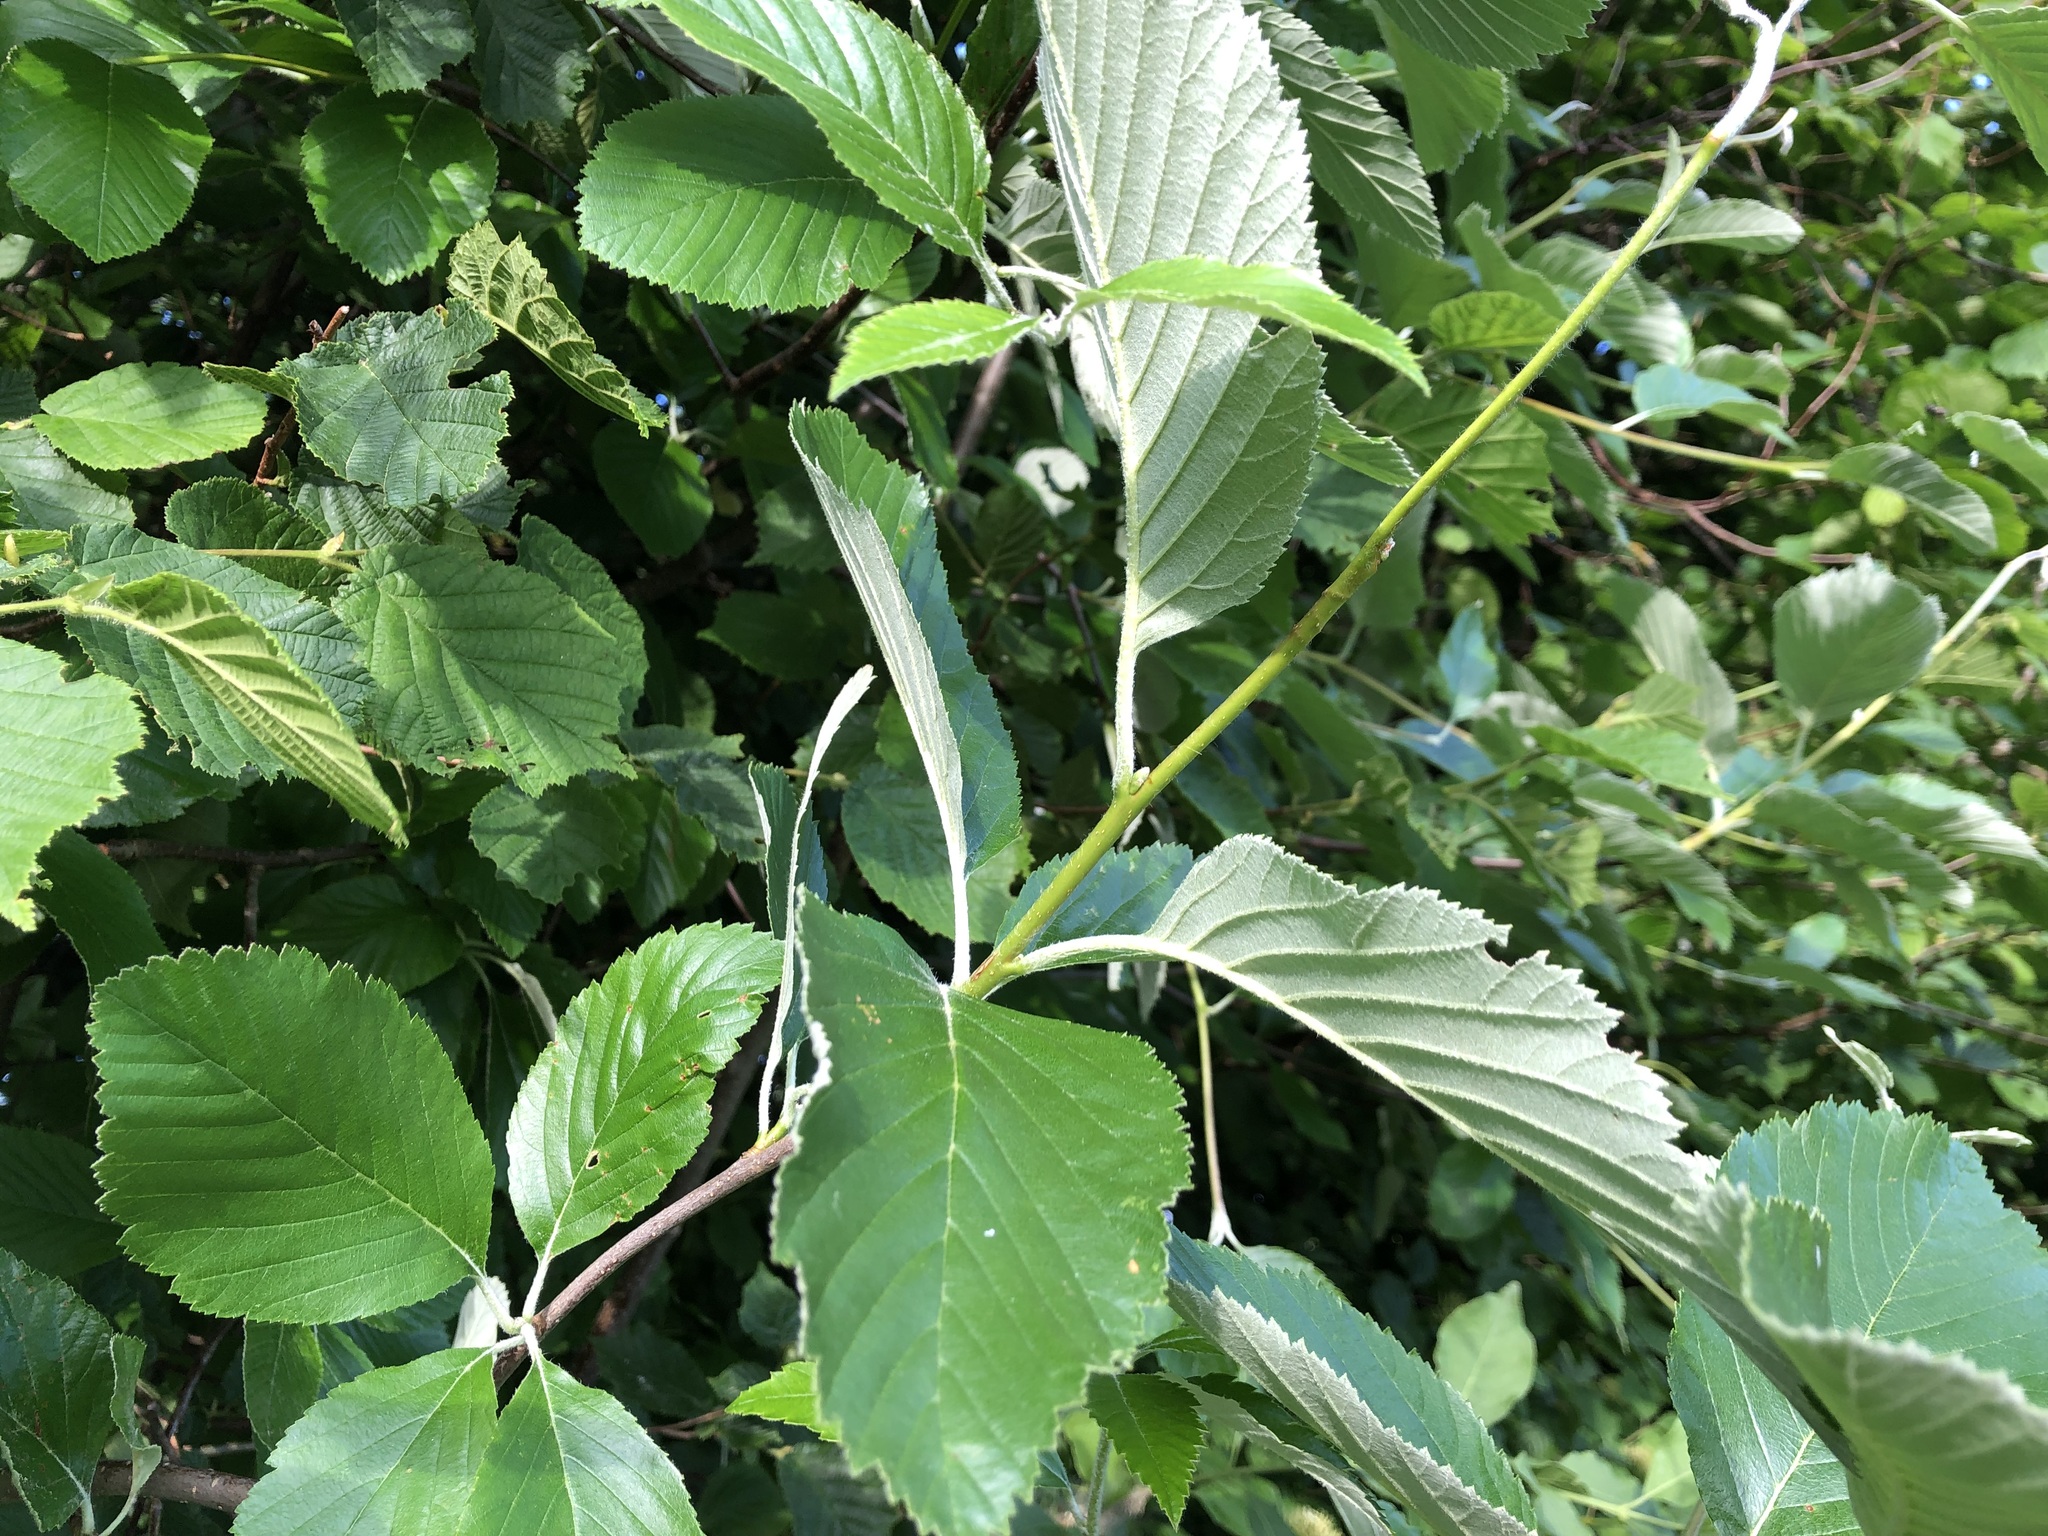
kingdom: Plantae
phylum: Tracheophyta
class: Magnoliopsida
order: Rosales
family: Rosaceae
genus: Aria
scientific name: Aria edulis
